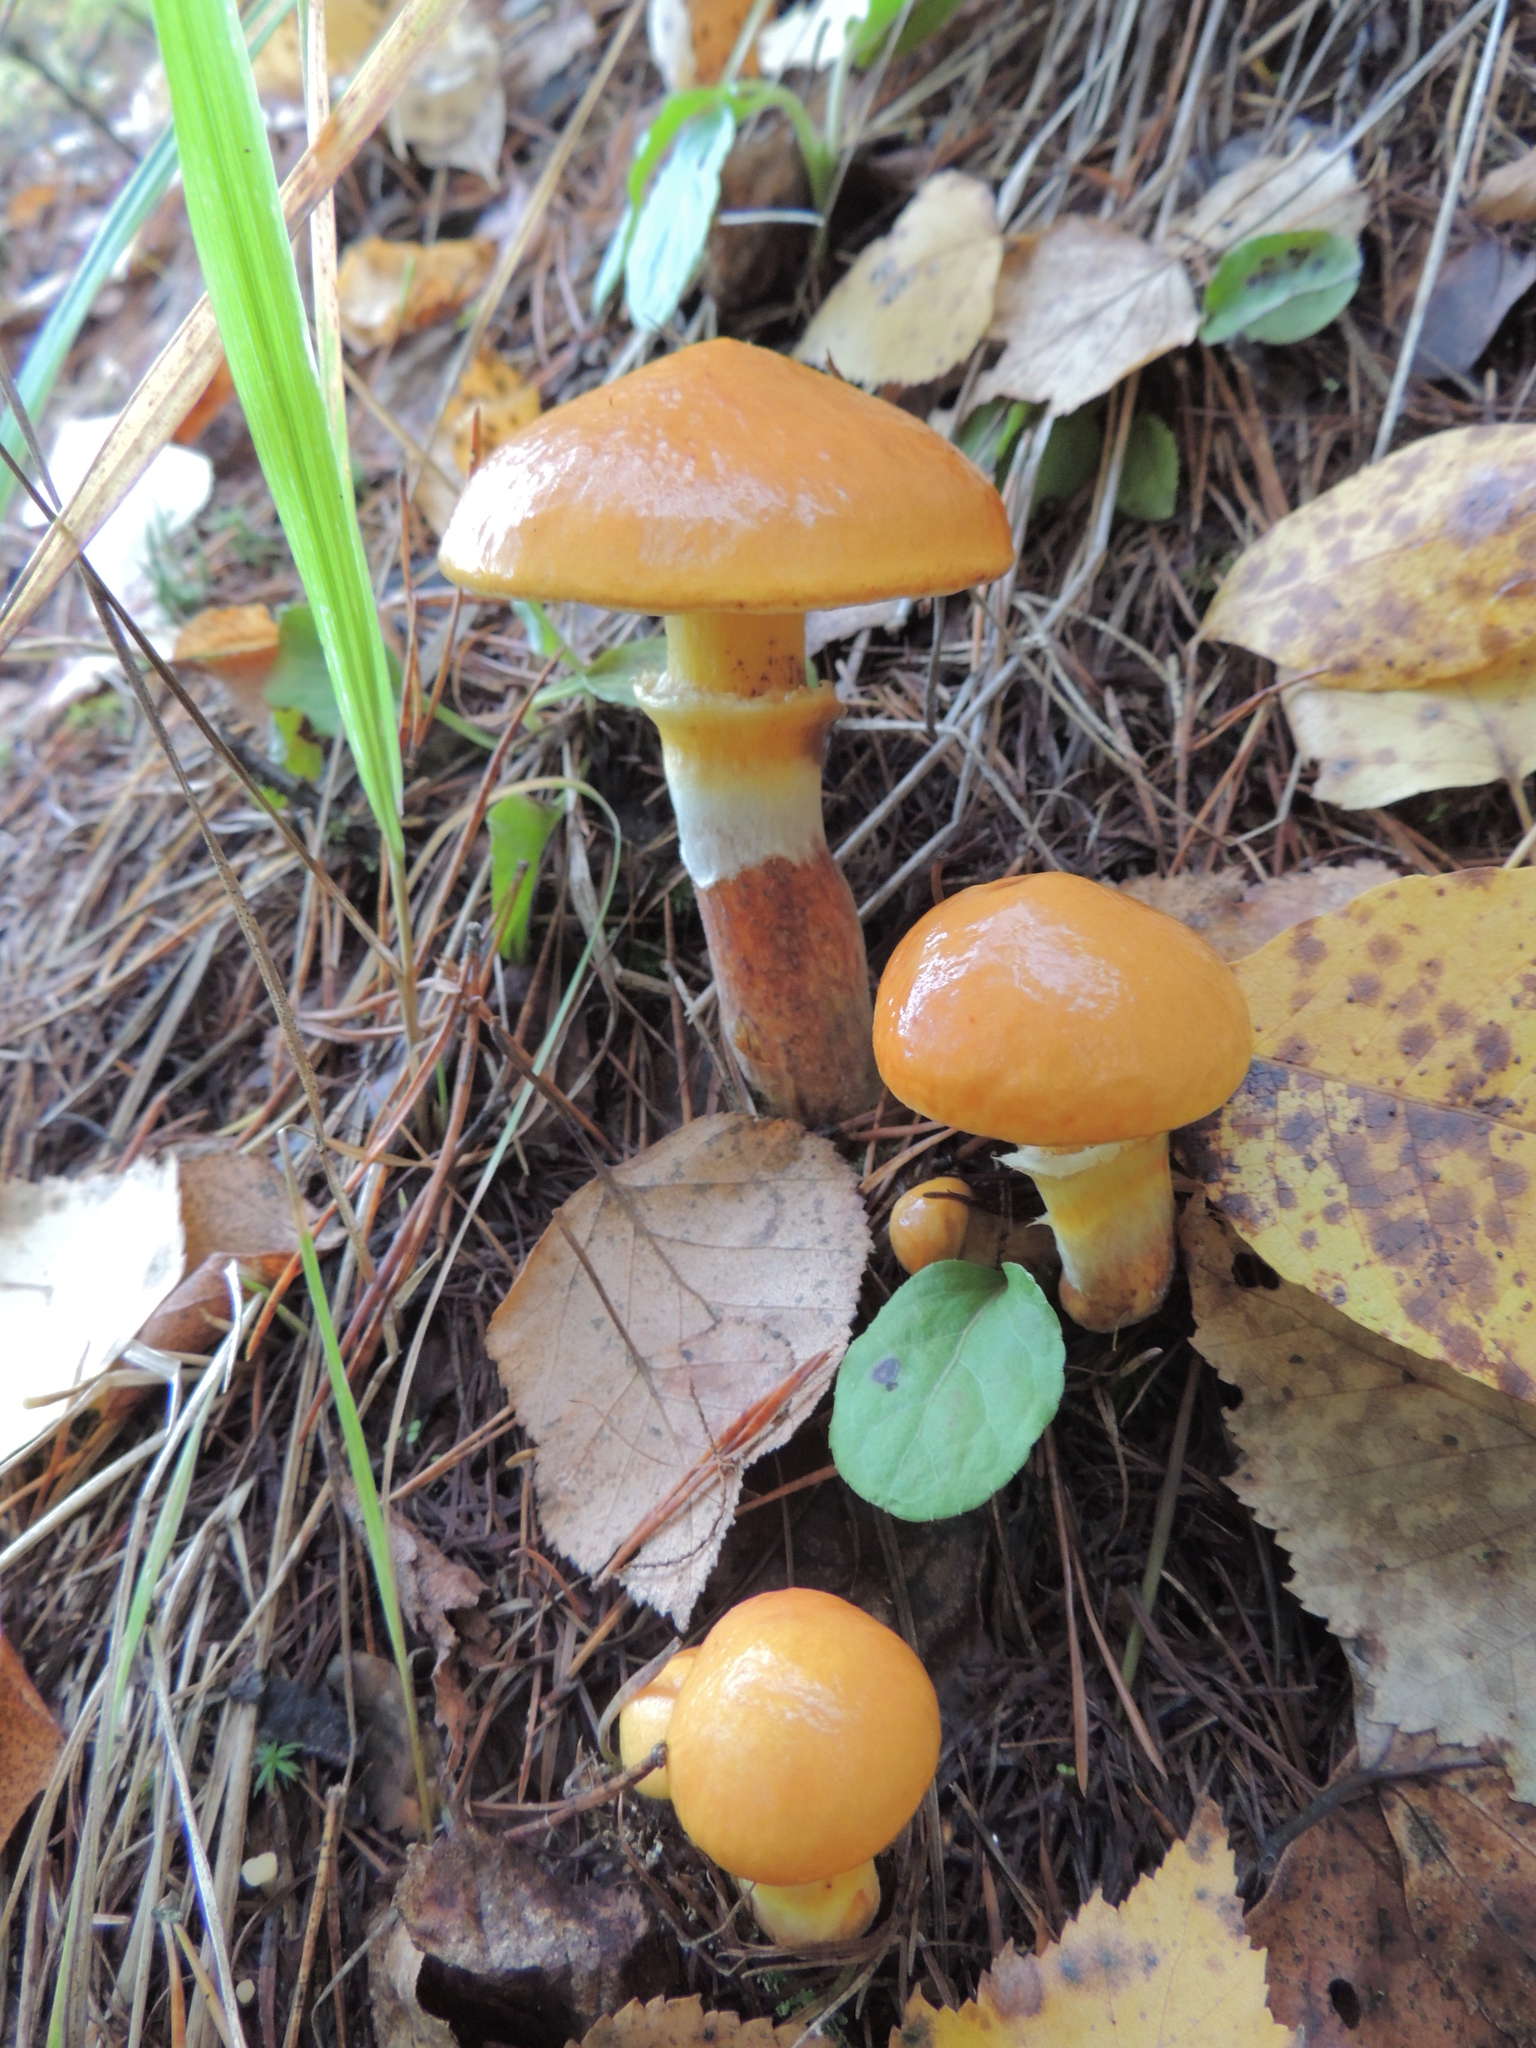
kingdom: Fungi
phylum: Basidiomycota
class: Agaricomycetes
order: Boletales
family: Suillaceae
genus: Suillus
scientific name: Suillus grevillei
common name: Larch bolete
